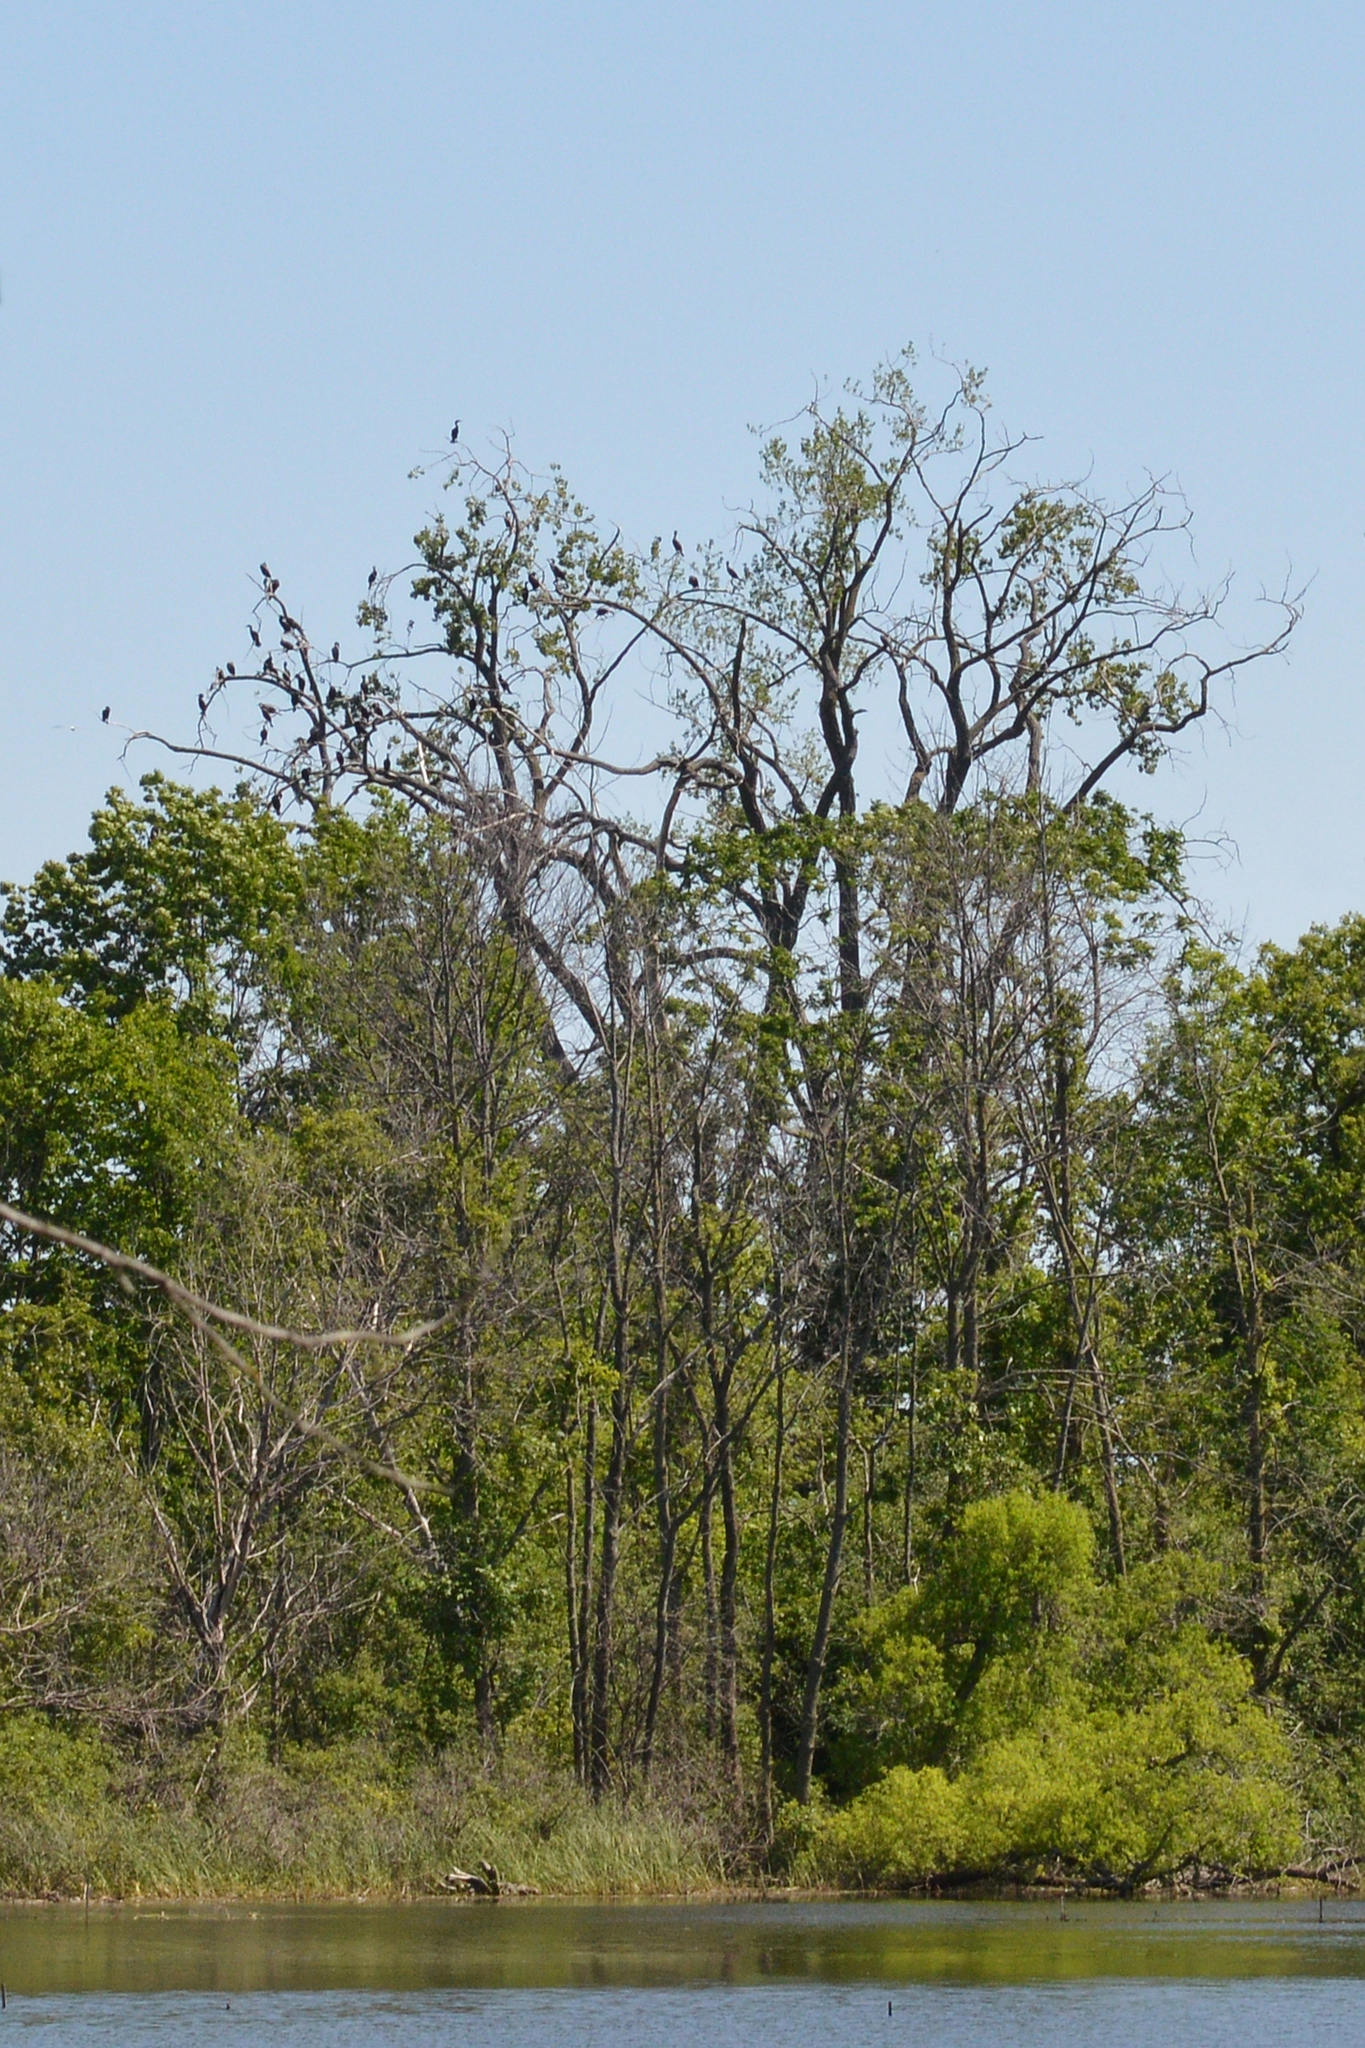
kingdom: Animalia
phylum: Chordata
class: Aves
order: Suliformes
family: Phalacrocoracidae
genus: Phalacrocorax
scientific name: Phalacrocorax auritus
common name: Double-crested cormorant
